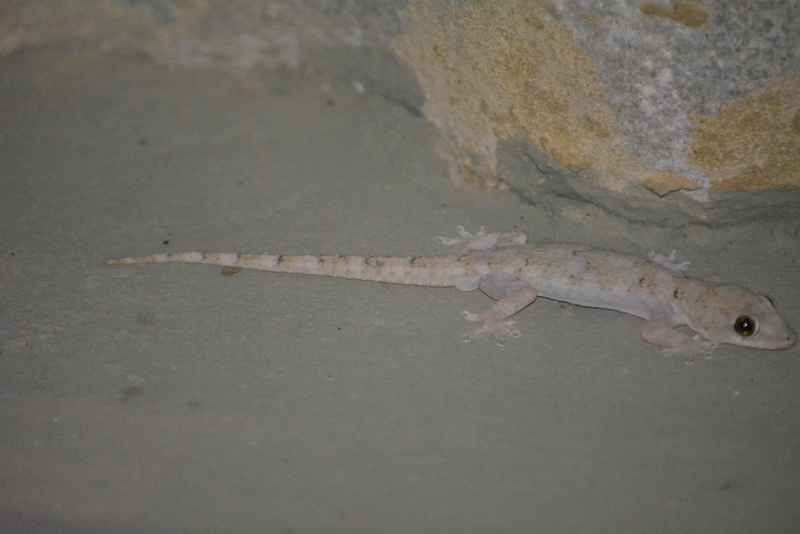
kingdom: Animalia
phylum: Chordata
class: Squamata
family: Gekkonidae
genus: Hemidactylus
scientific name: Hemidactylus mabouia
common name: House gecko
